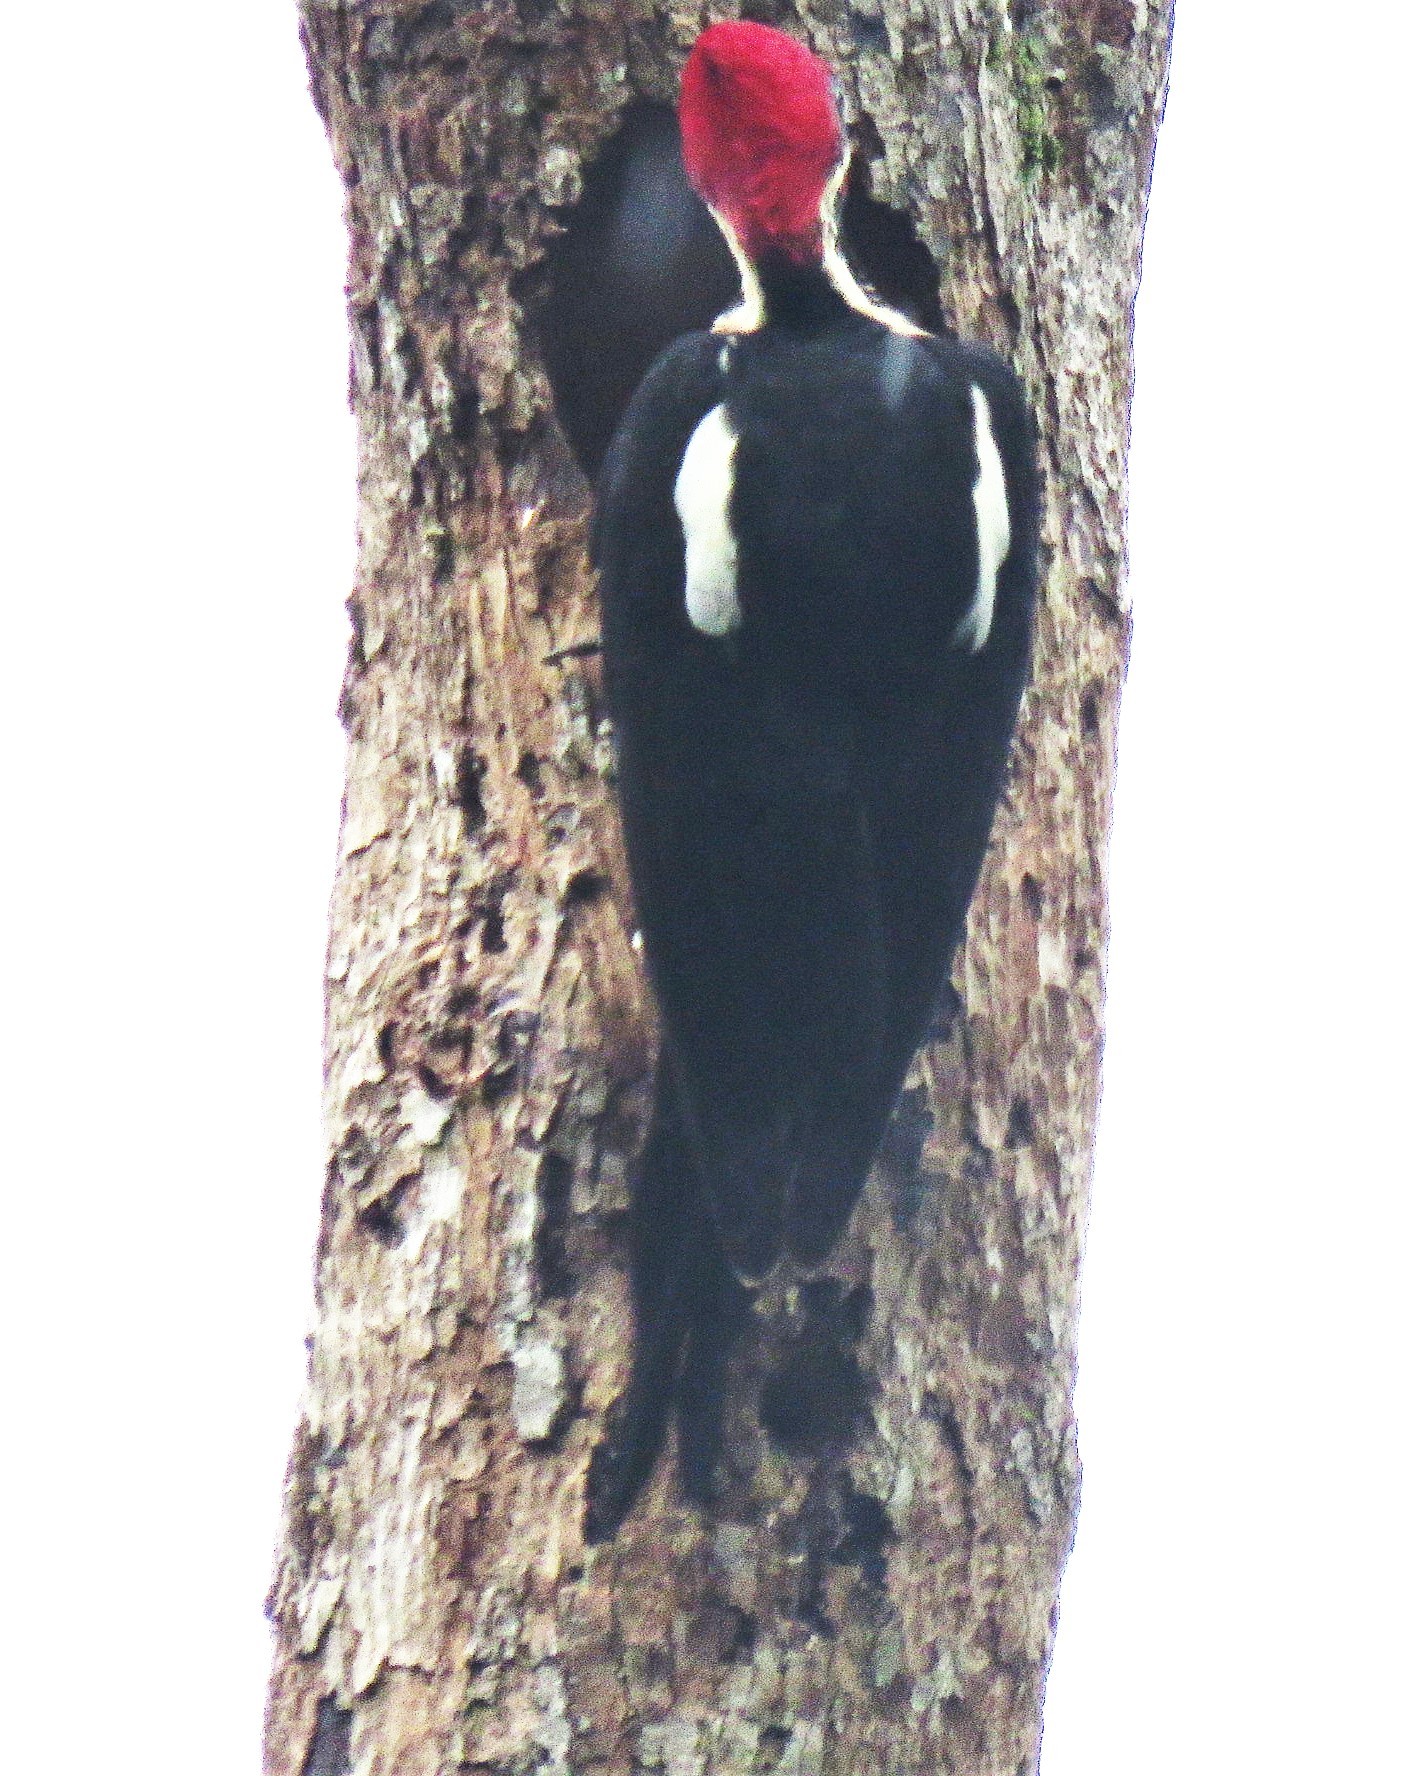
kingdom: Animalia
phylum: Chordata
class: Aves
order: Piciformes
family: Picidae
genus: Dryocopus
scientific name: Dryocopus lineatus
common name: Lineated woodpecker
